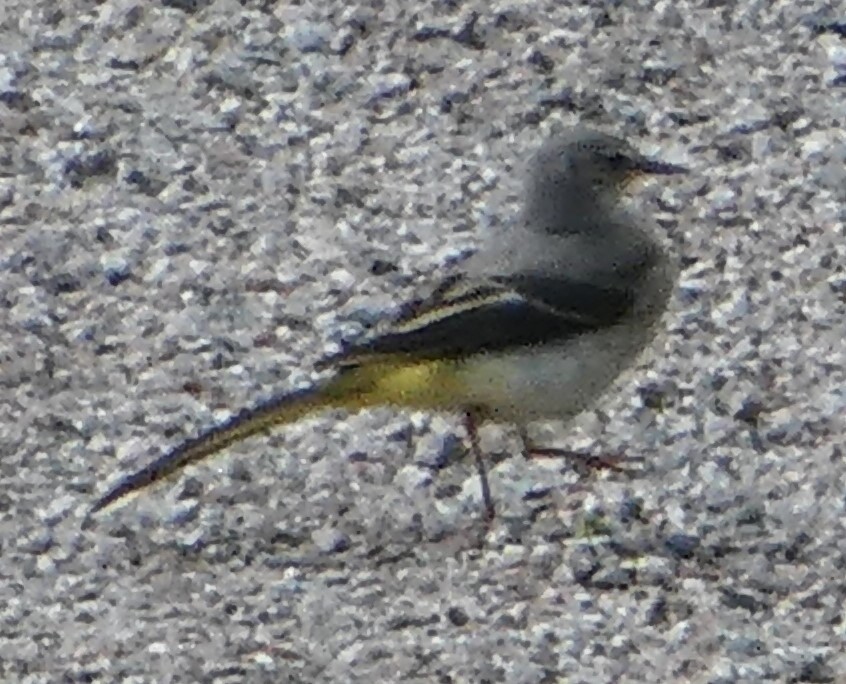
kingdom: Animalia
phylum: Chordata
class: Aves
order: Passeriformes
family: Motacillidae
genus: Motacilla
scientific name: Motacilla cinerea
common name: Grey wagtail
